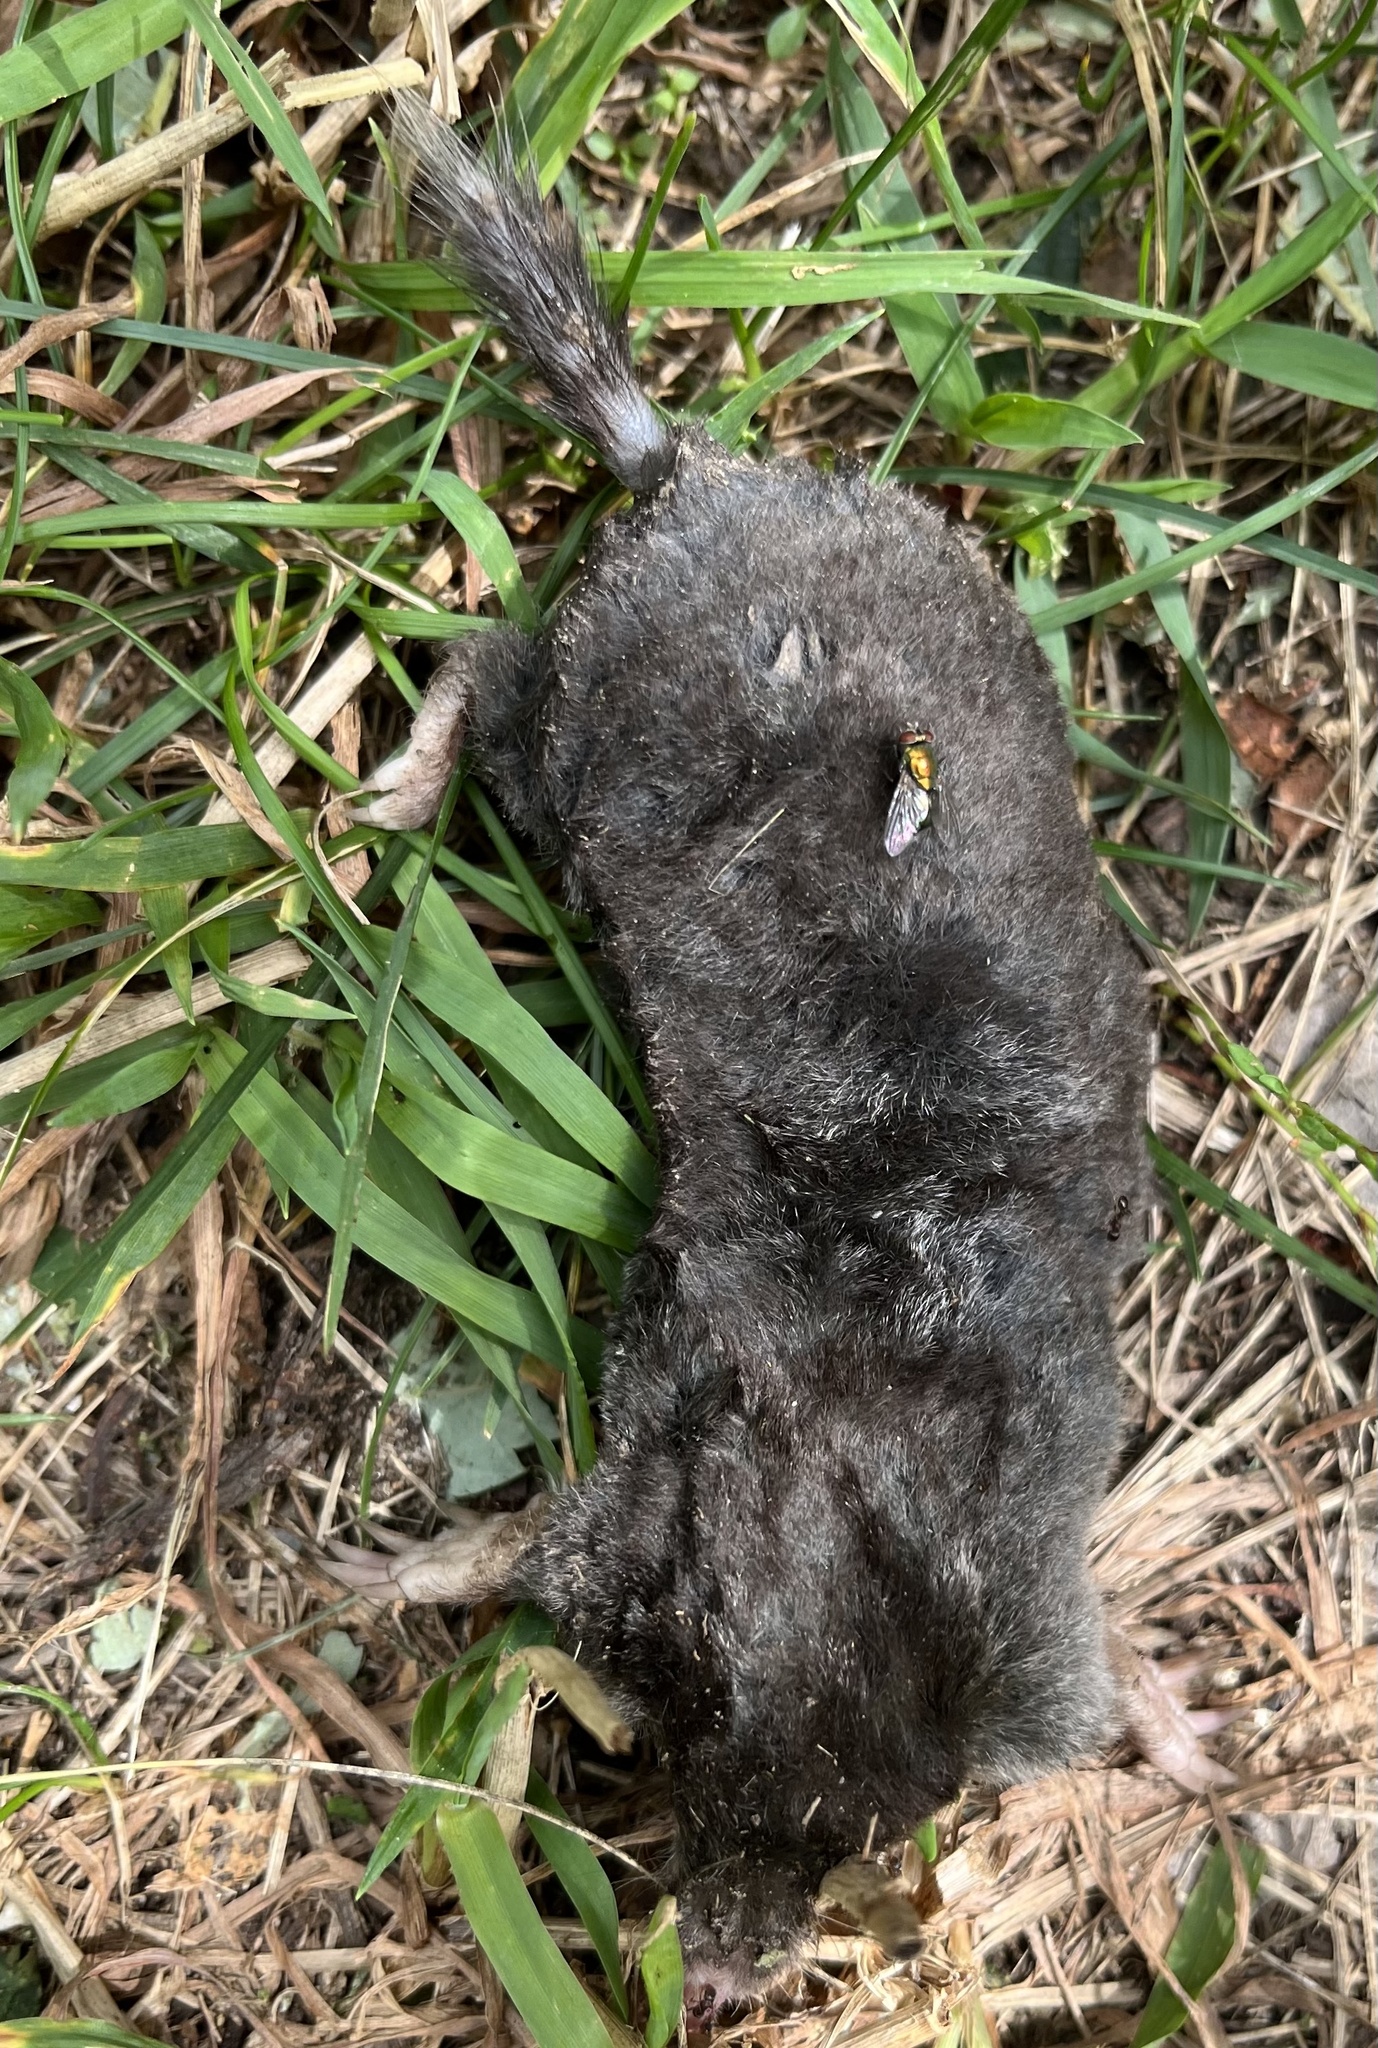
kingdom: Animalia
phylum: Chordata
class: Mammalia
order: Soricomorpha
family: Talpidae
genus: Parascalops
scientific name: Parascalops breweri
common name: Hairy-tailed mole
